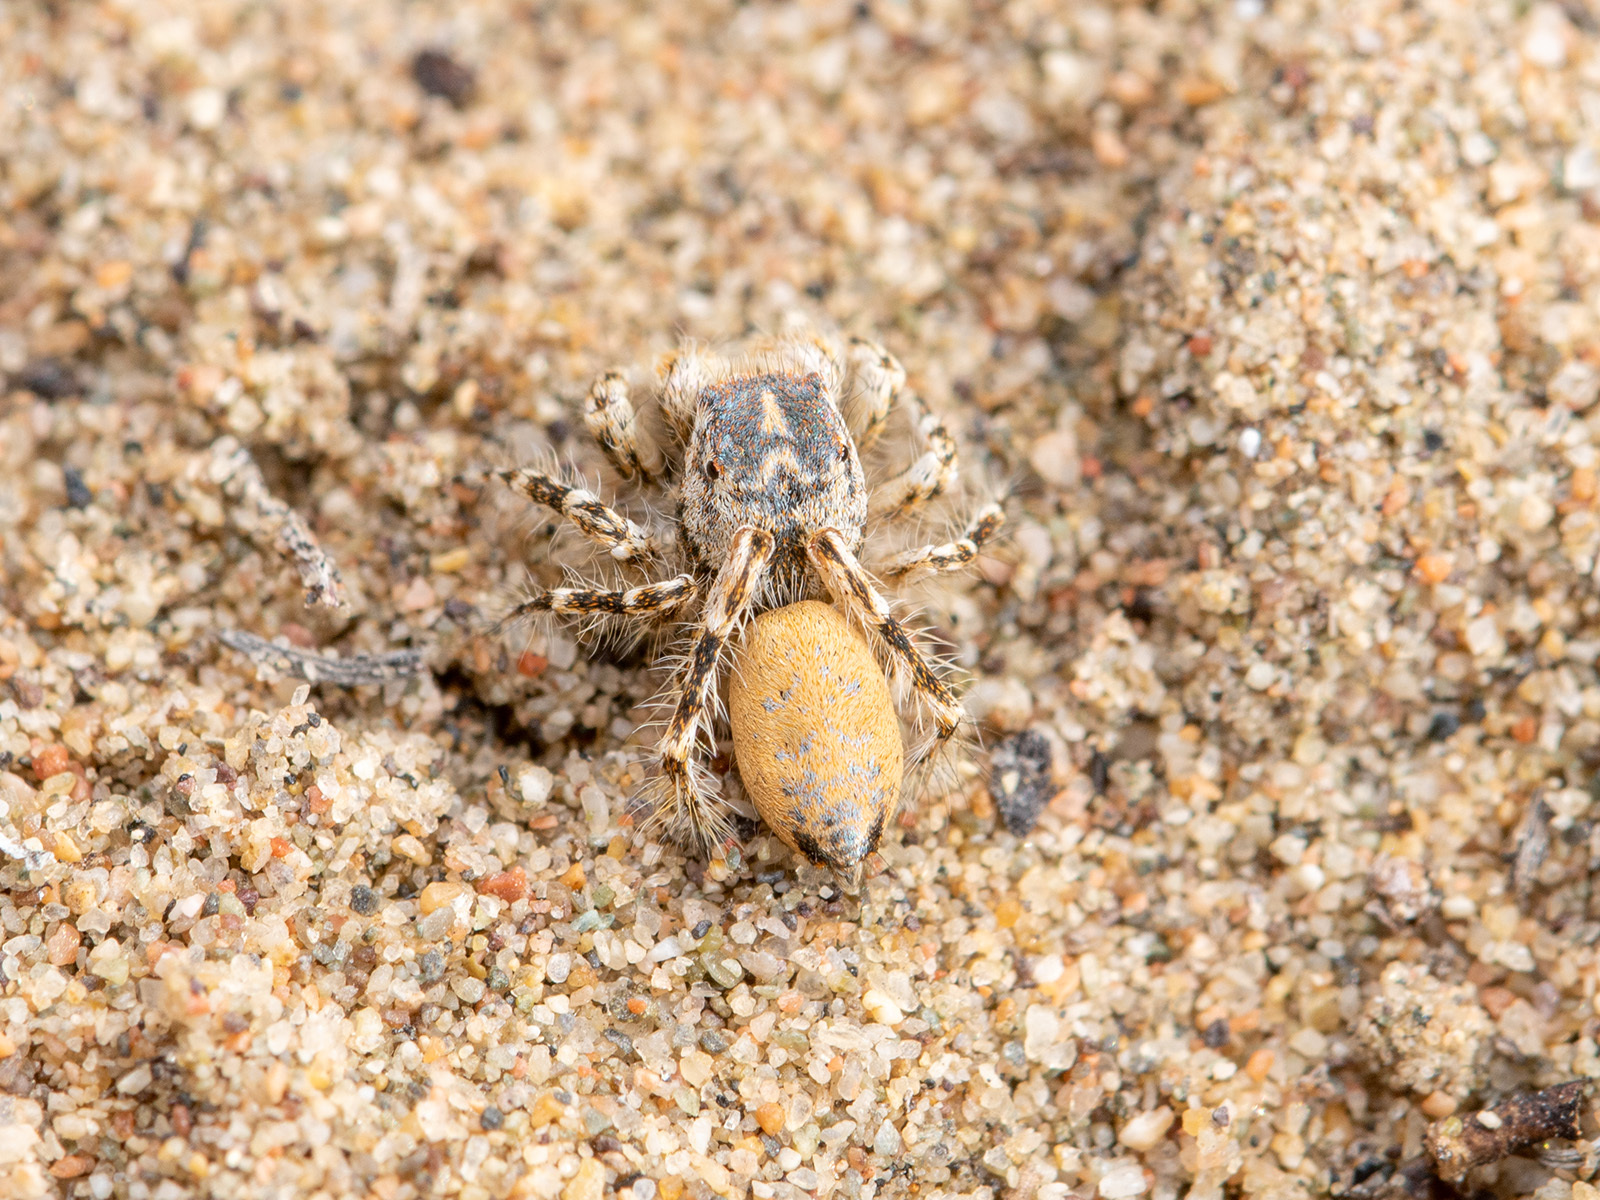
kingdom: Animalia
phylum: Arthropoda
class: Arachnida
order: Araneae
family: Salticidae
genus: Yllenus
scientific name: Yllenus turkestanicus
